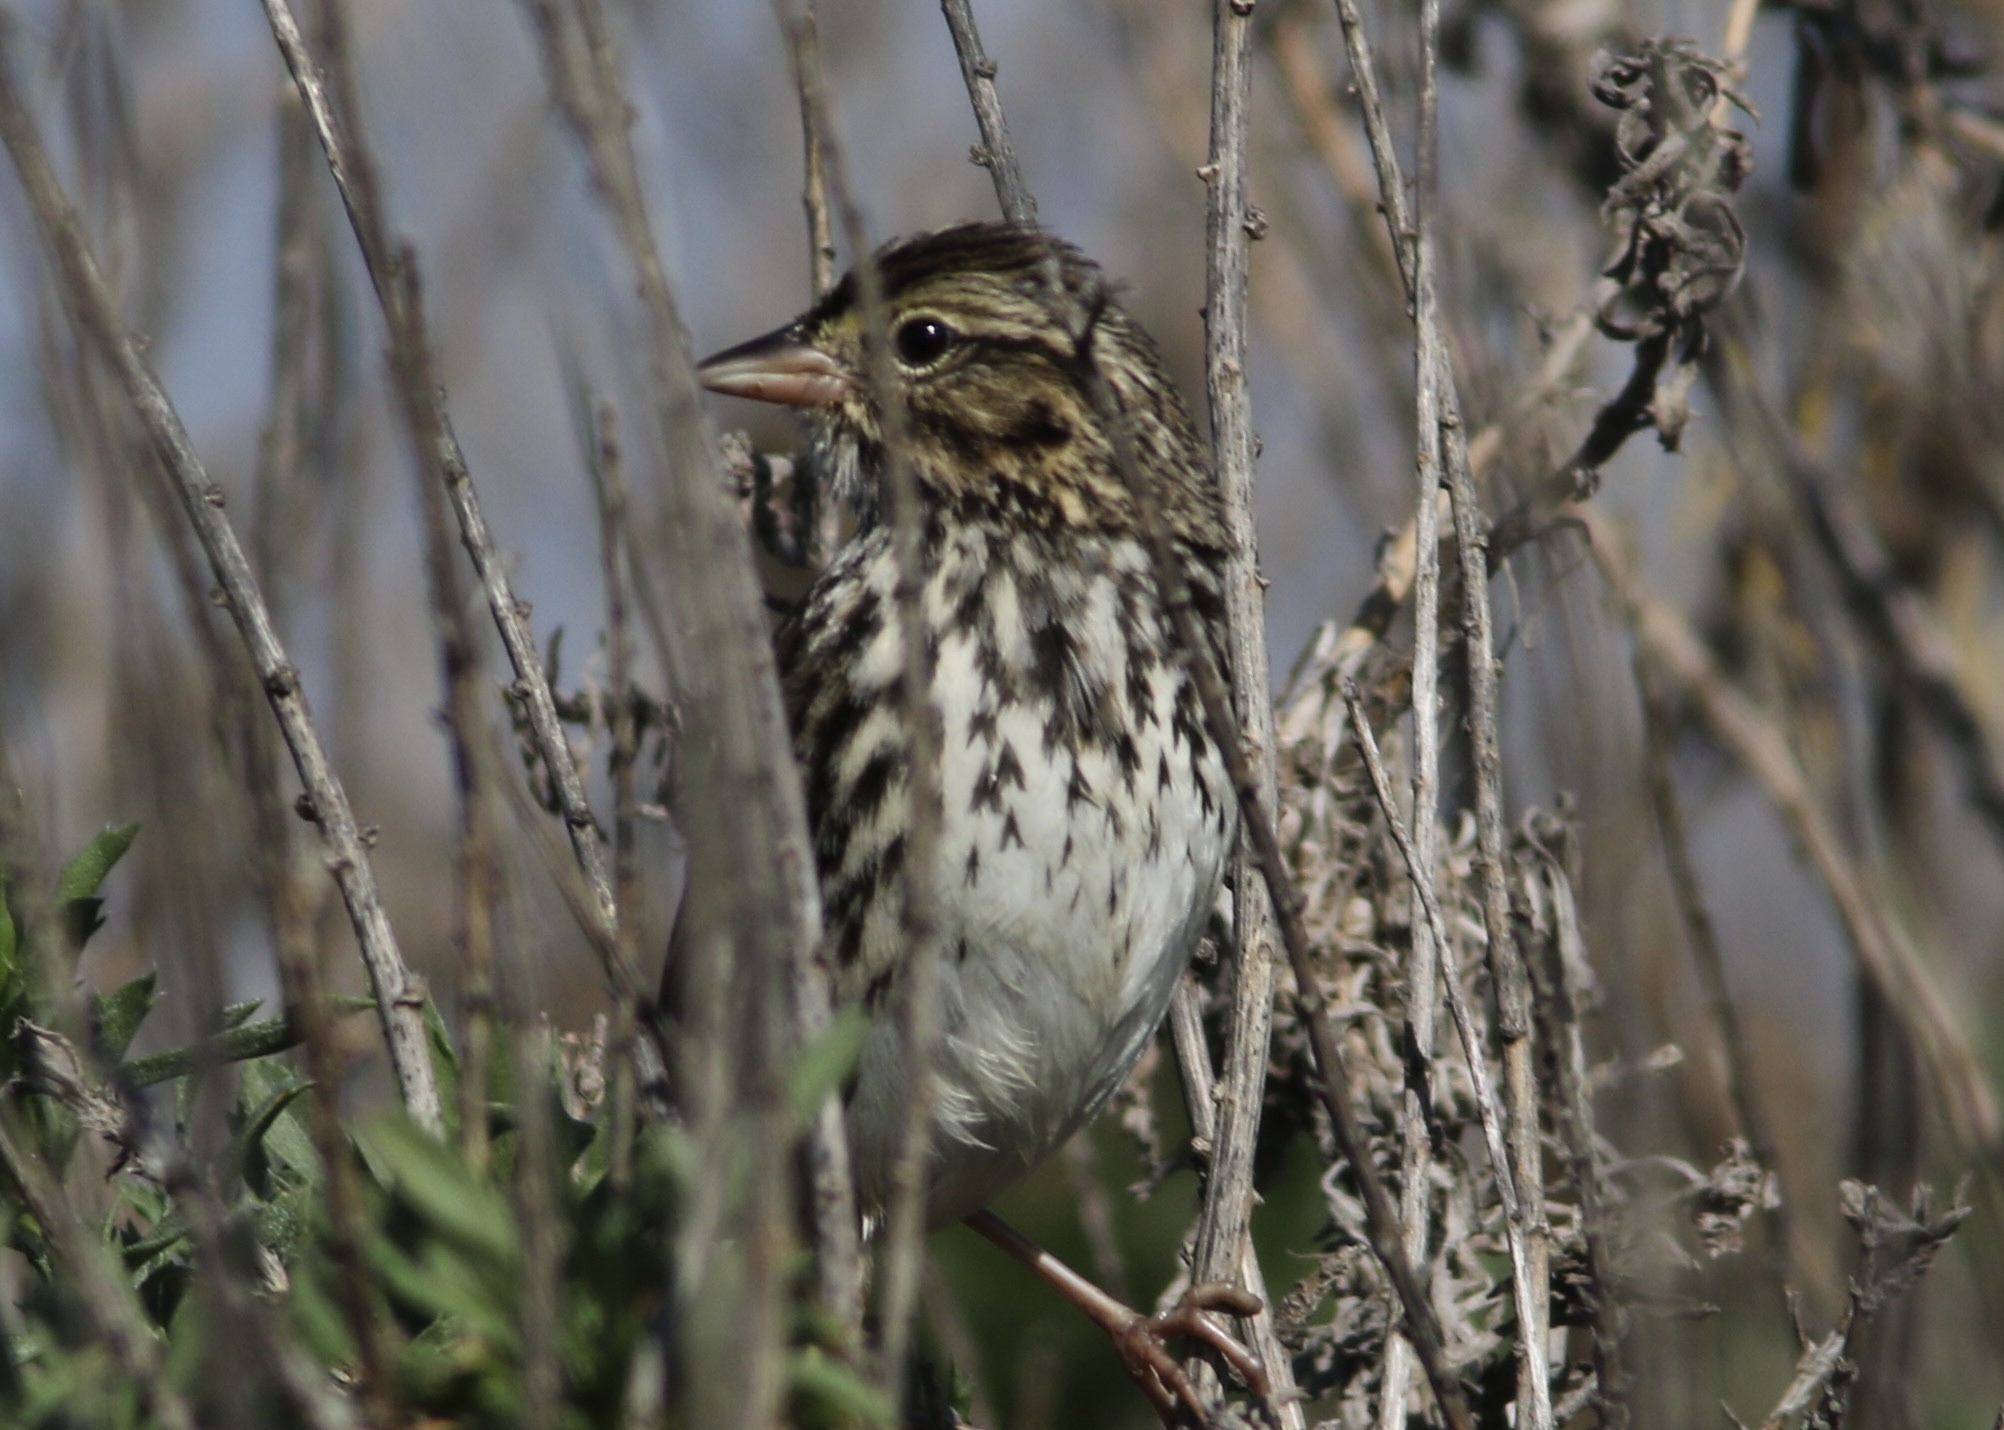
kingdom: Animalia
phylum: Chordata
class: Aves
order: Passeriformes
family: Passerellidae
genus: Passerculus
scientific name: Passerculus sandwichensis
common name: Savannah sparrow
